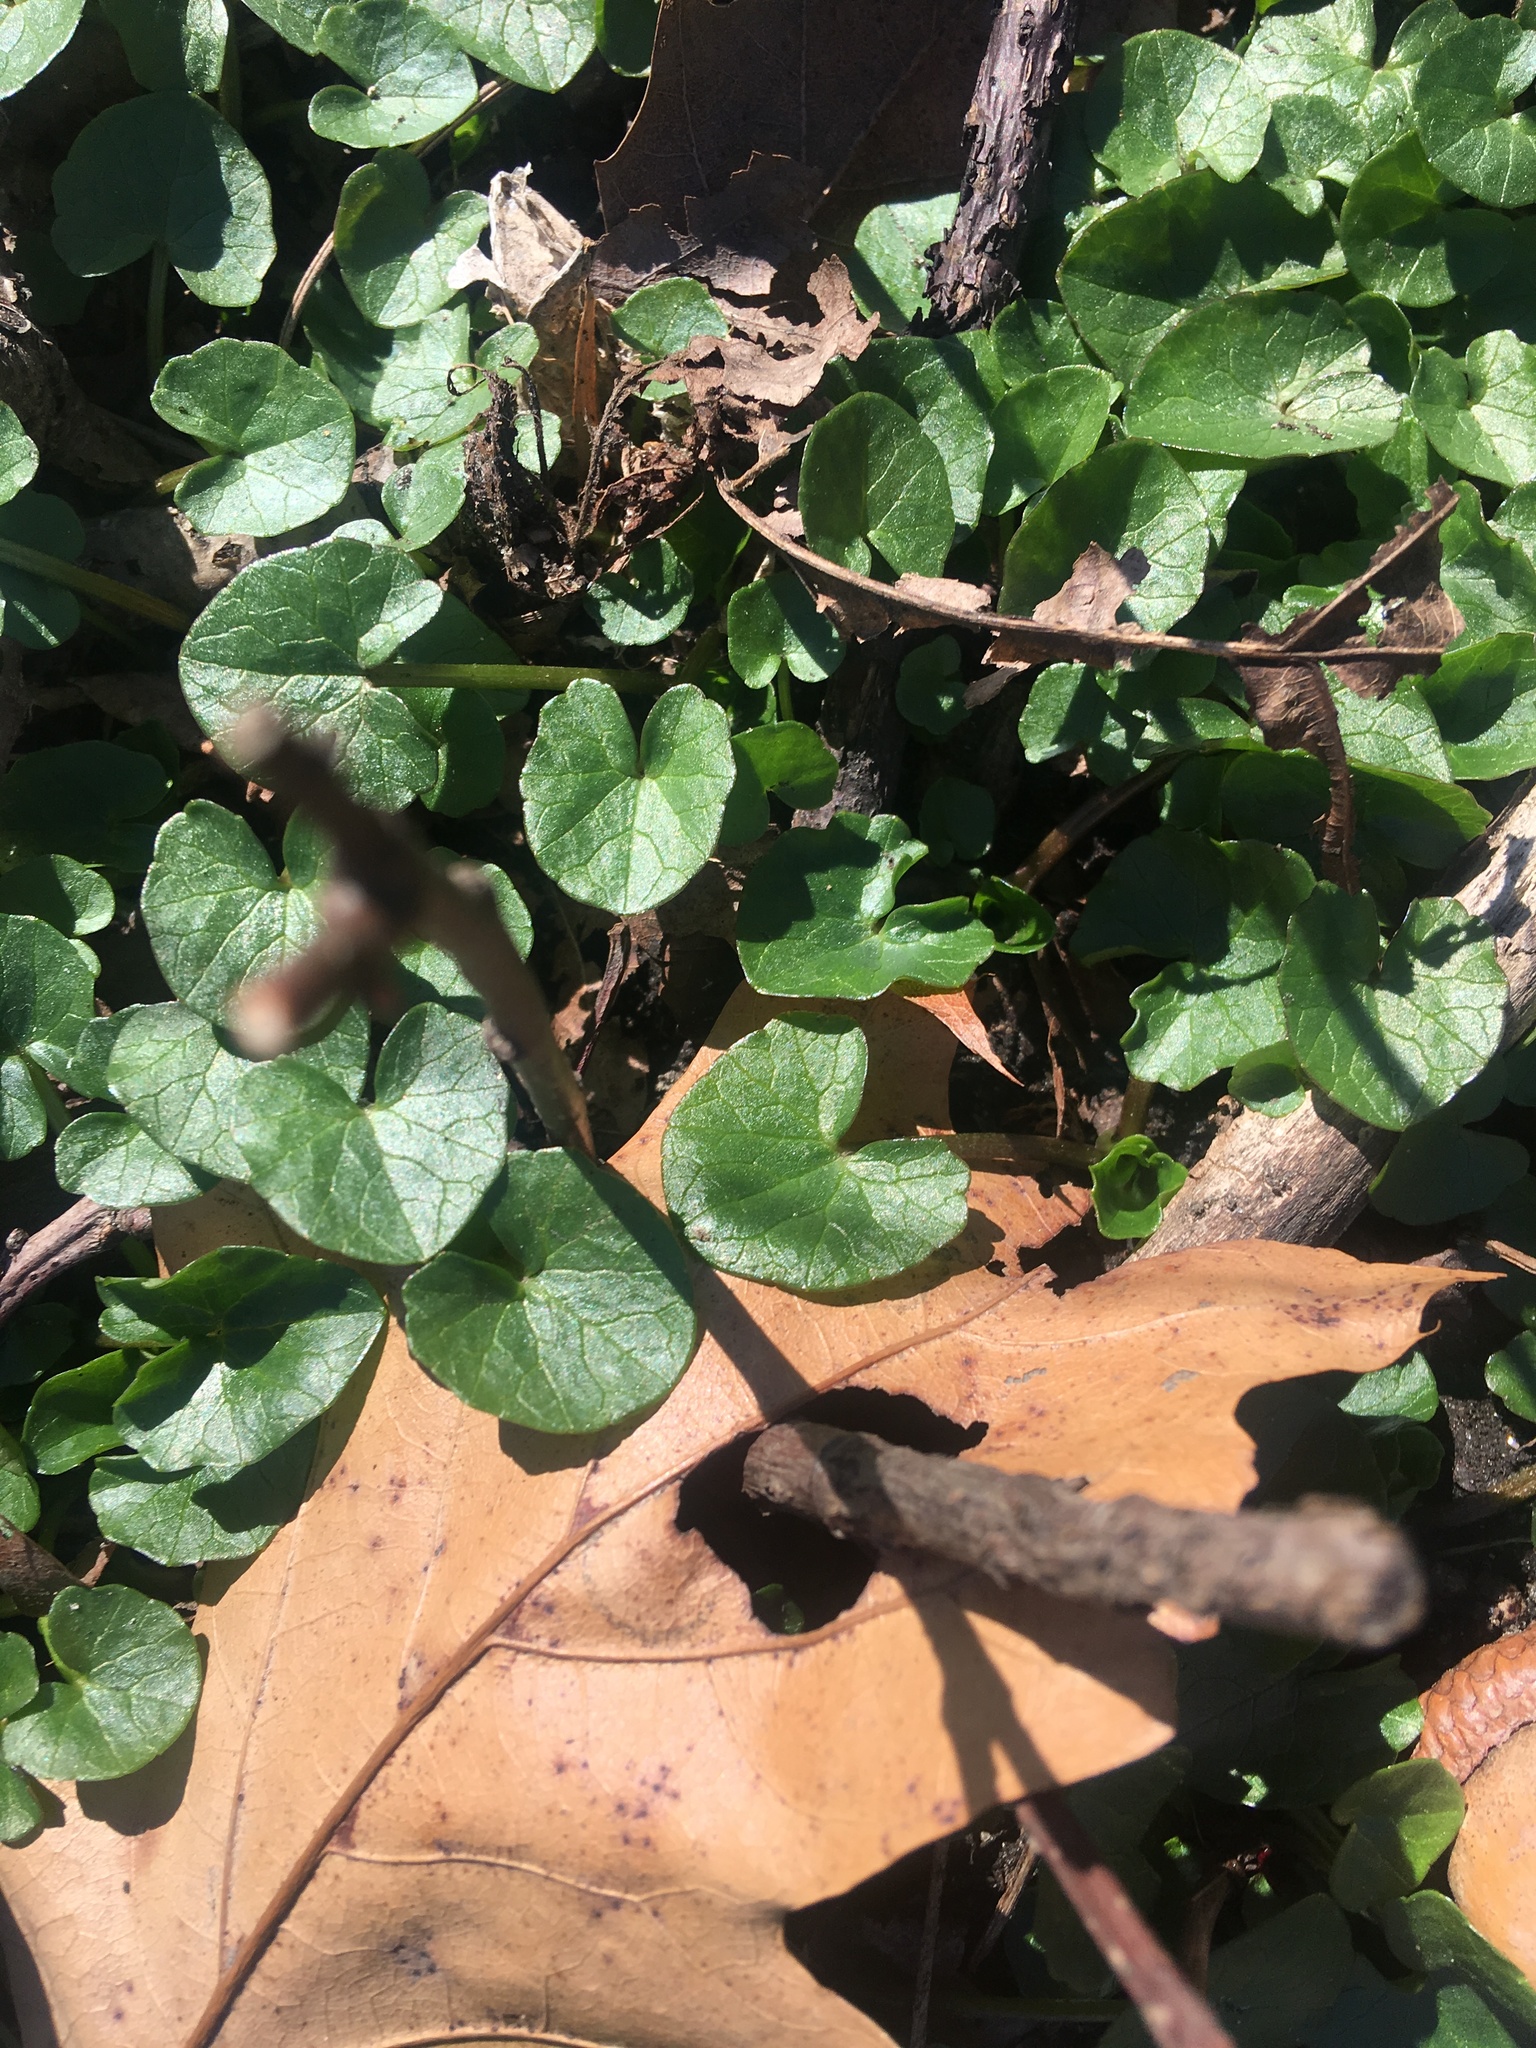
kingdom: Plantae
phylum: Tracheophyta
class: Magnoliopsida
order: Ranunculales
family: Ranunculaceae
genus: Ficaria
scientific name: Ficaria verna
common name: Lesser celandine
